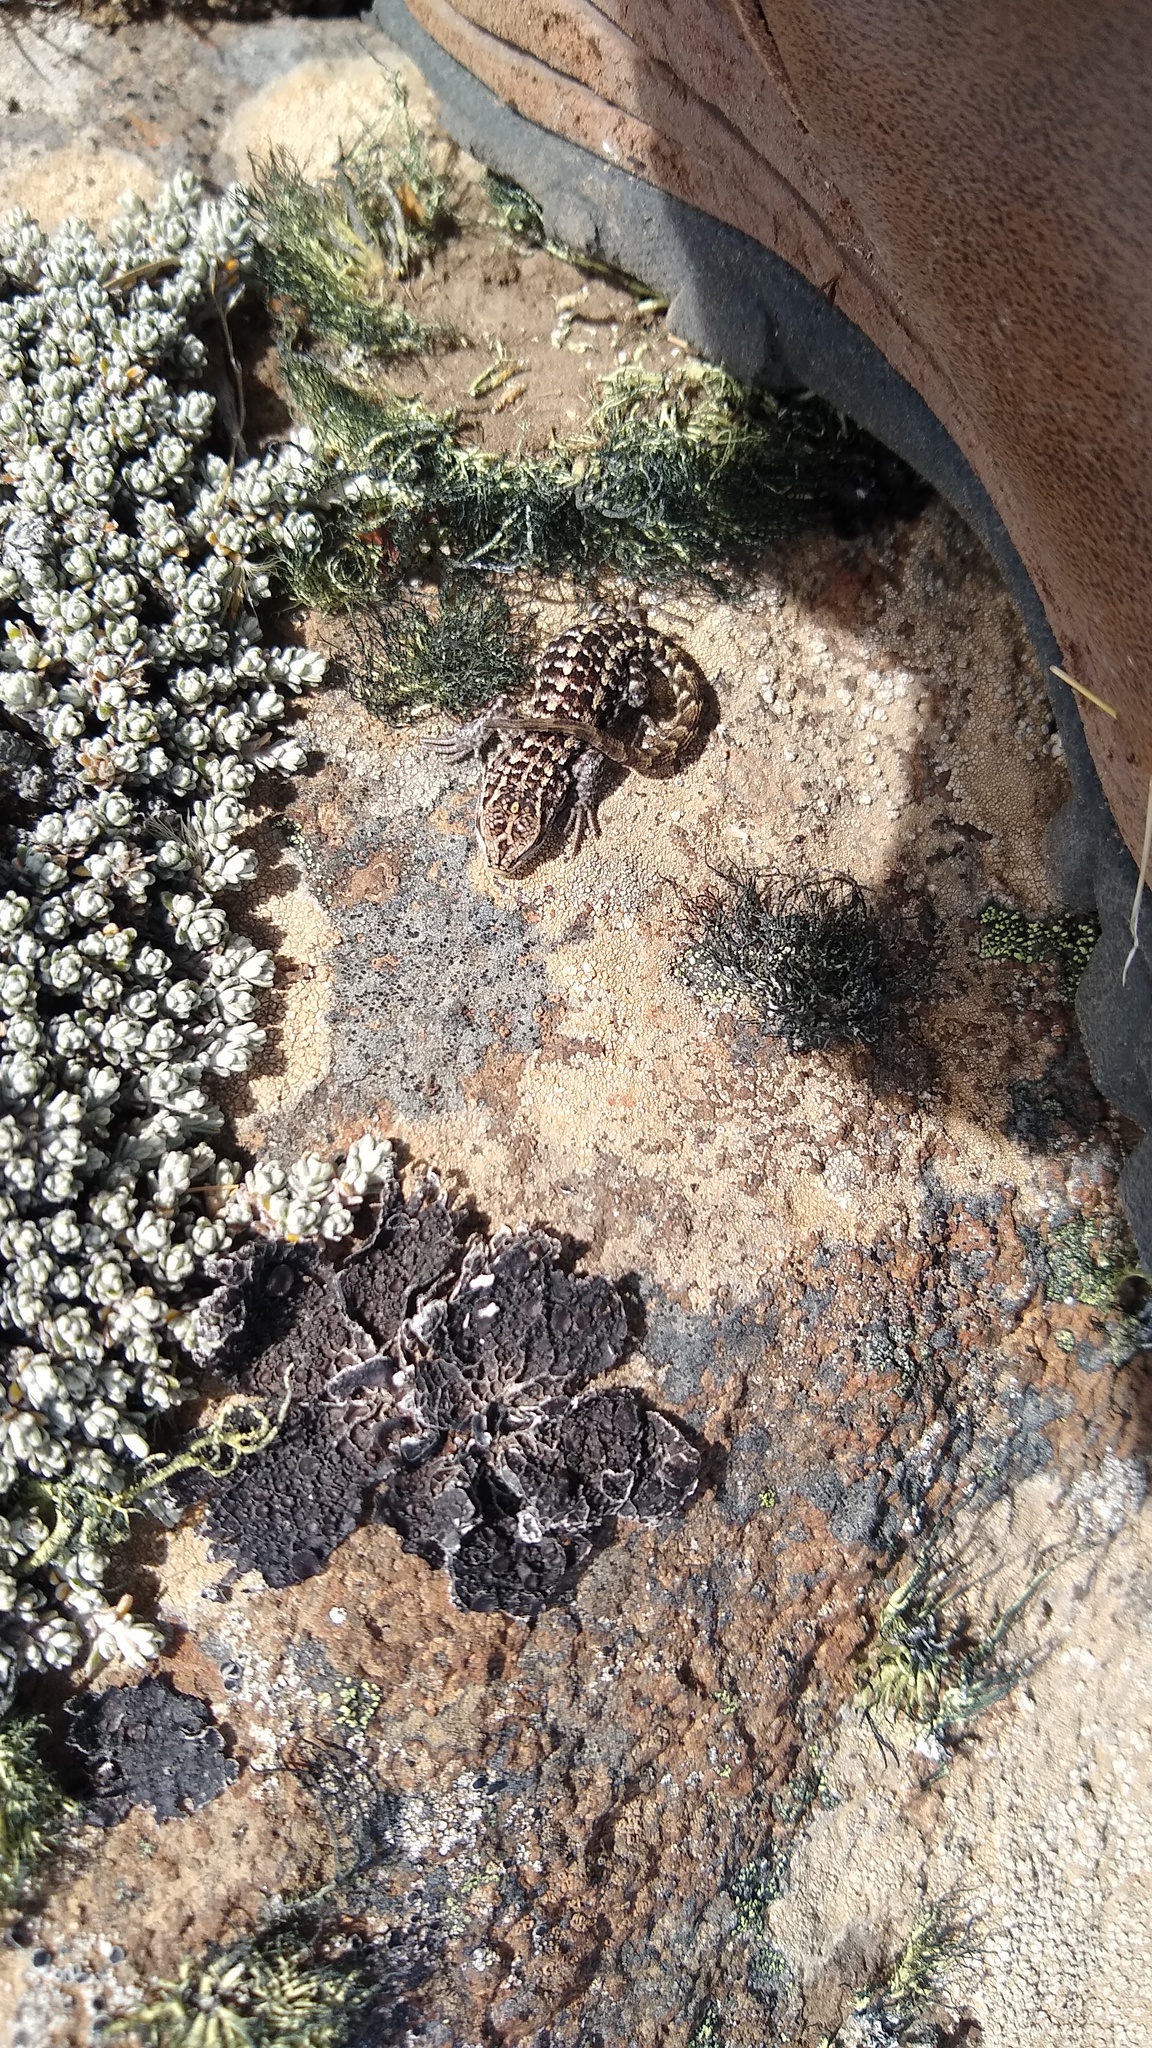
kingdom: Animalia
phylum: Chordata
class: Squamata
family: Liolaemidae
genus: Liolaemus
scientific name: Liolaemus hatcheri
